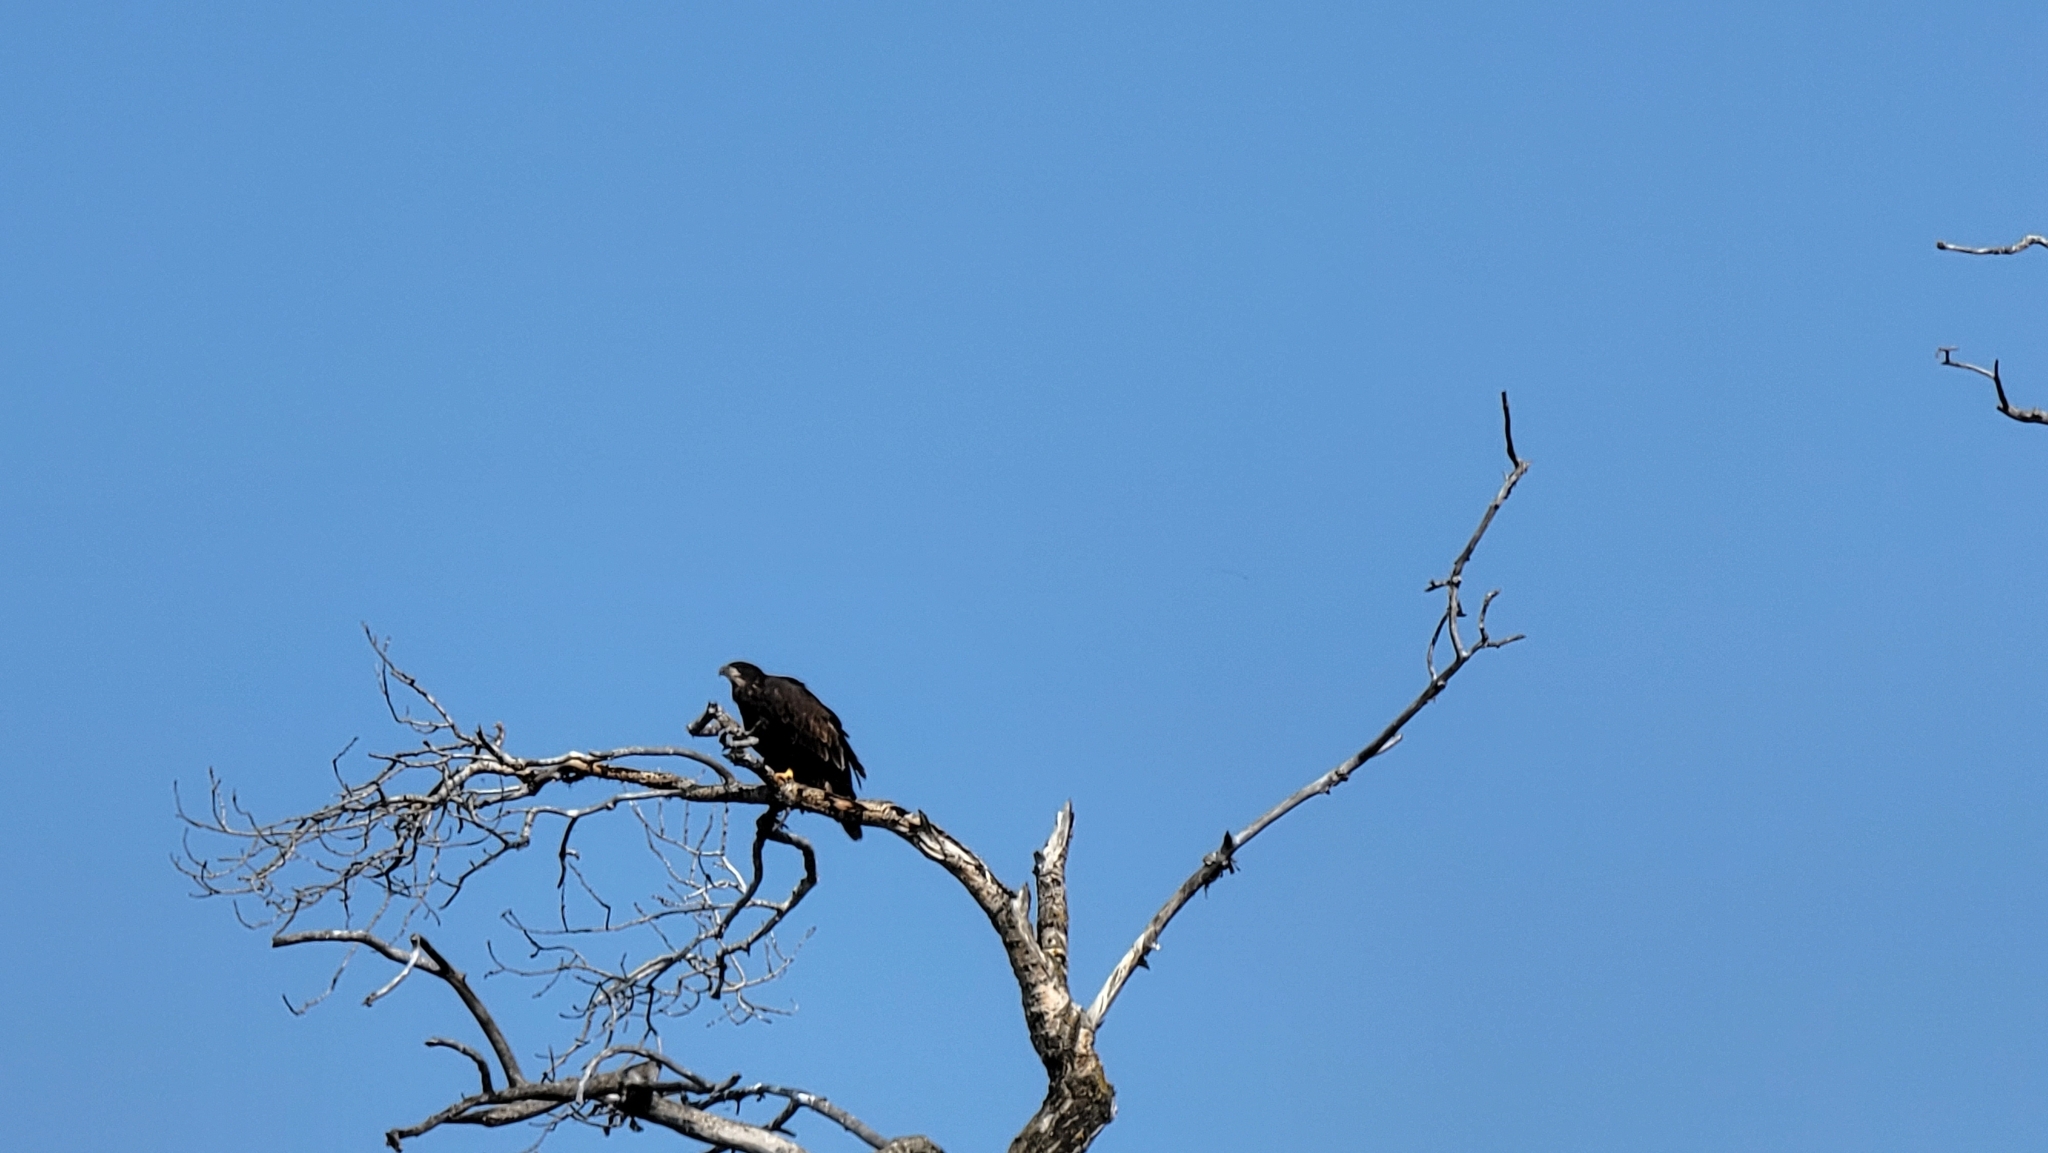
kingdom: Animalia
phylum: Chordata
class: Aves
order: Accipitriformes
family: Accipitridae
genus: Haliaeetus
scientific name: Haliaeetus leucocephalus
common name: Bald eagle
